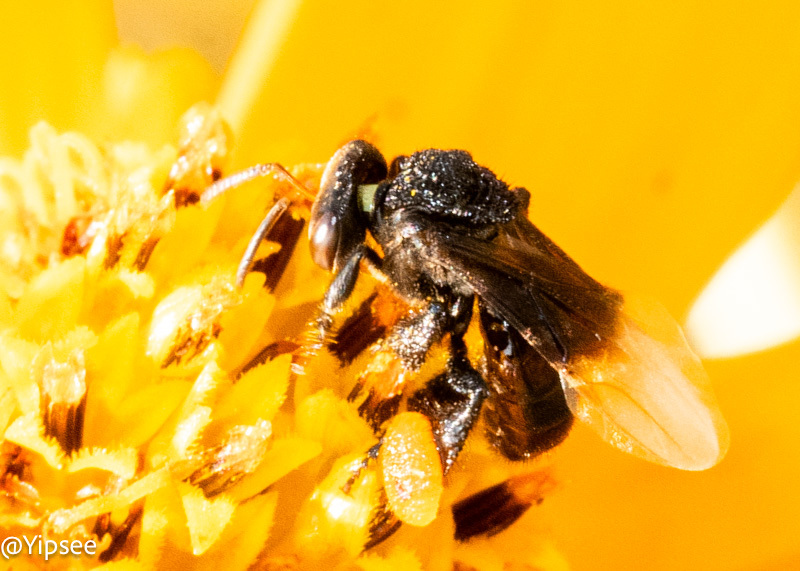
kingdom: Animalia
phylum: Arthropoda
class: Insecta
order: Hymenoptera
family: Apidae
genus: Tetragonula
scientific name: Tetragonula collina
